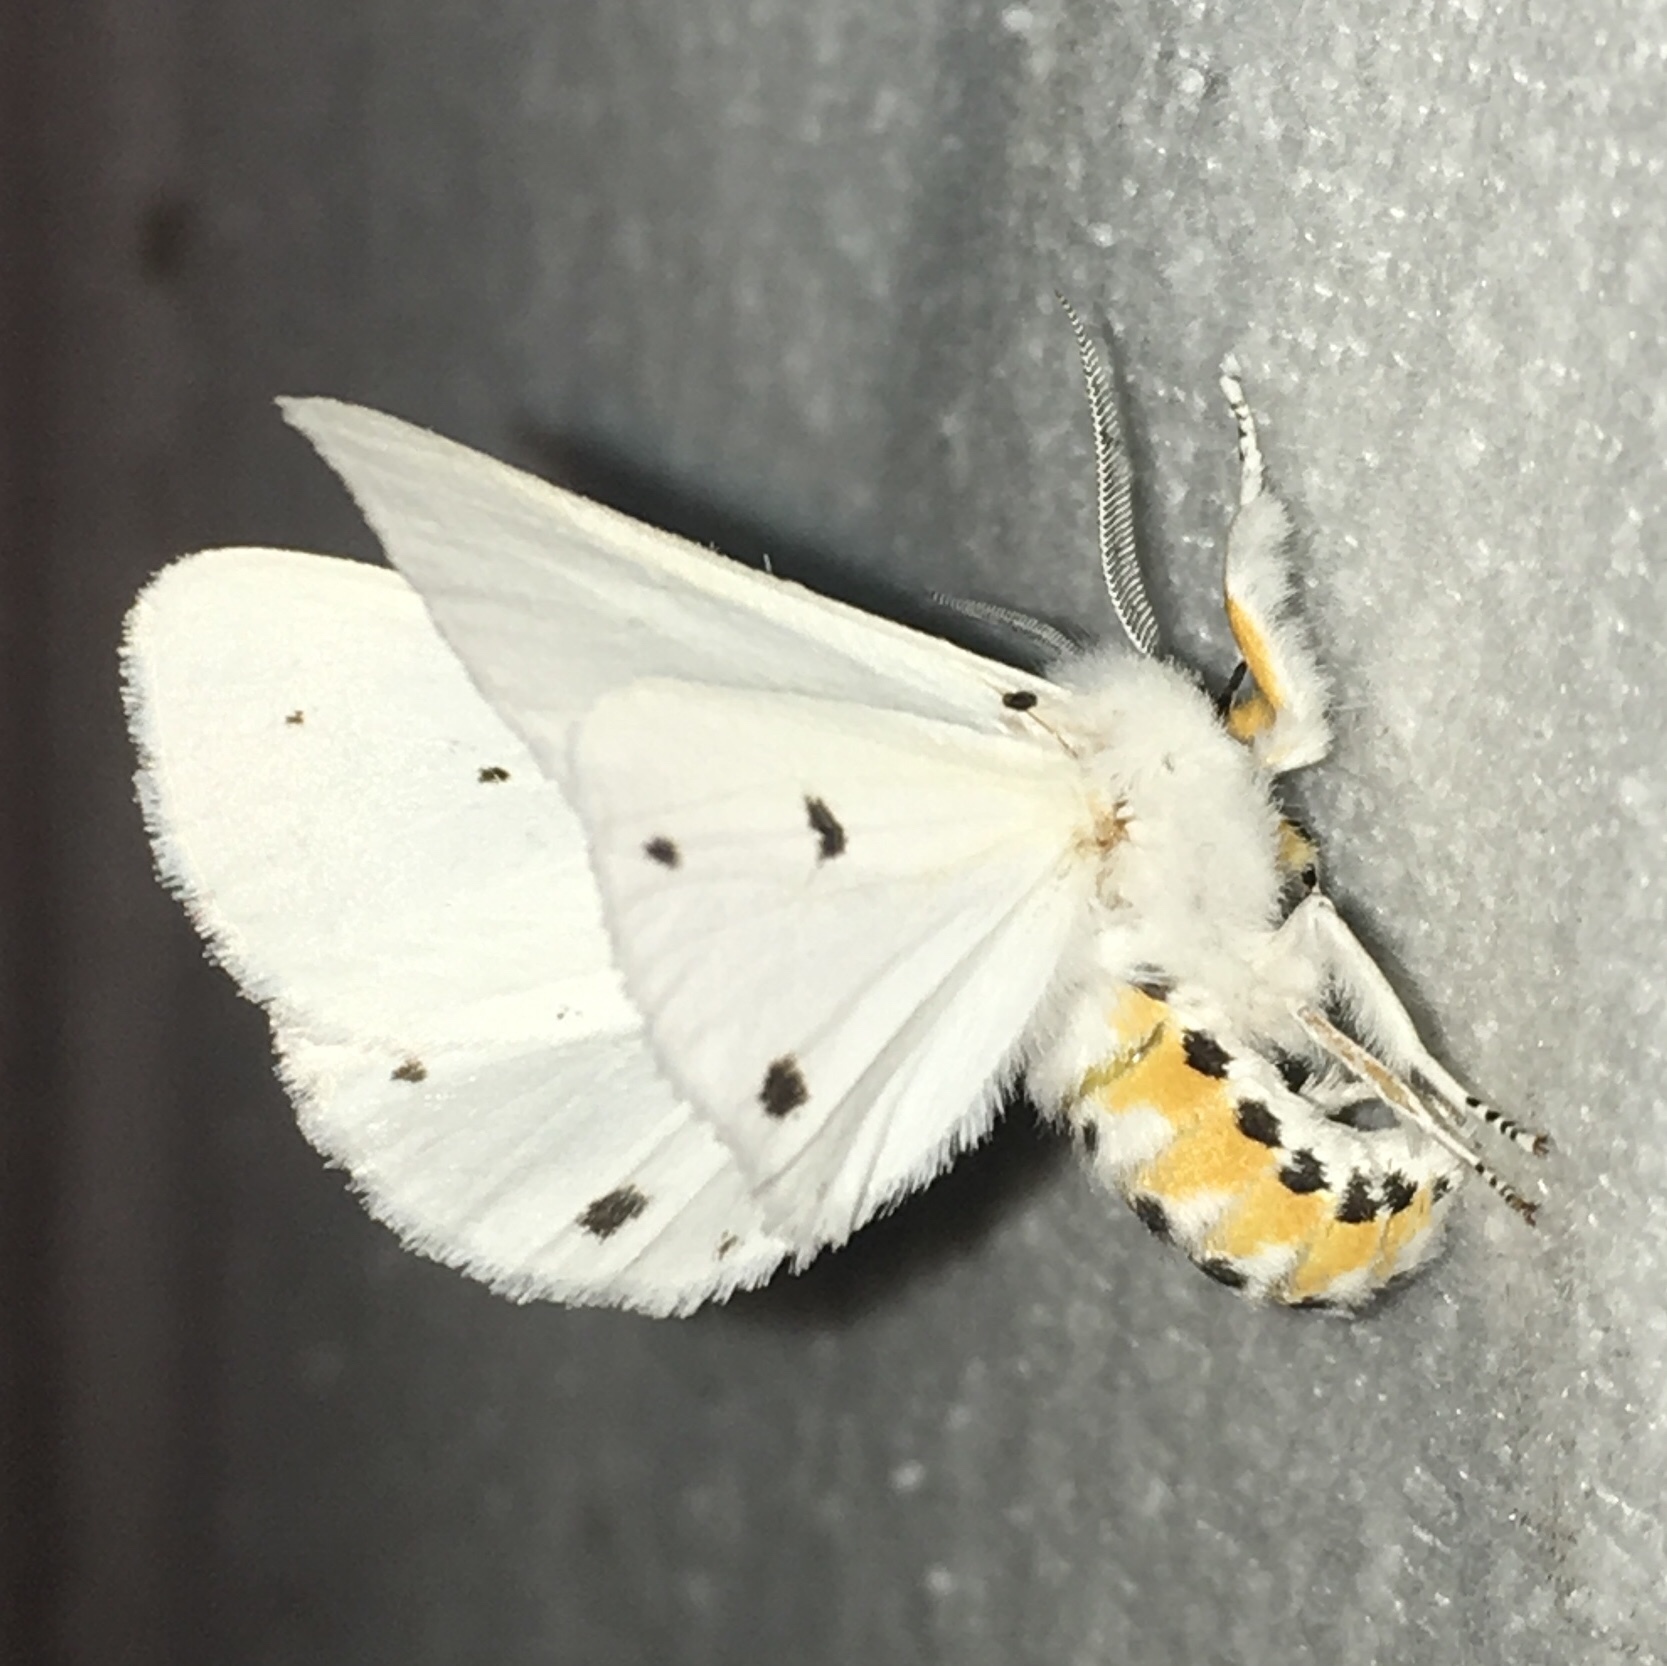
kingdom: Animalia
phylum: Arthropoda
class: Insecta
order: Lepidoptera
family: Erebidae
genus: Spilosoma
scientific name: Spilosoma virginica
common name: Virginia tiger moth
